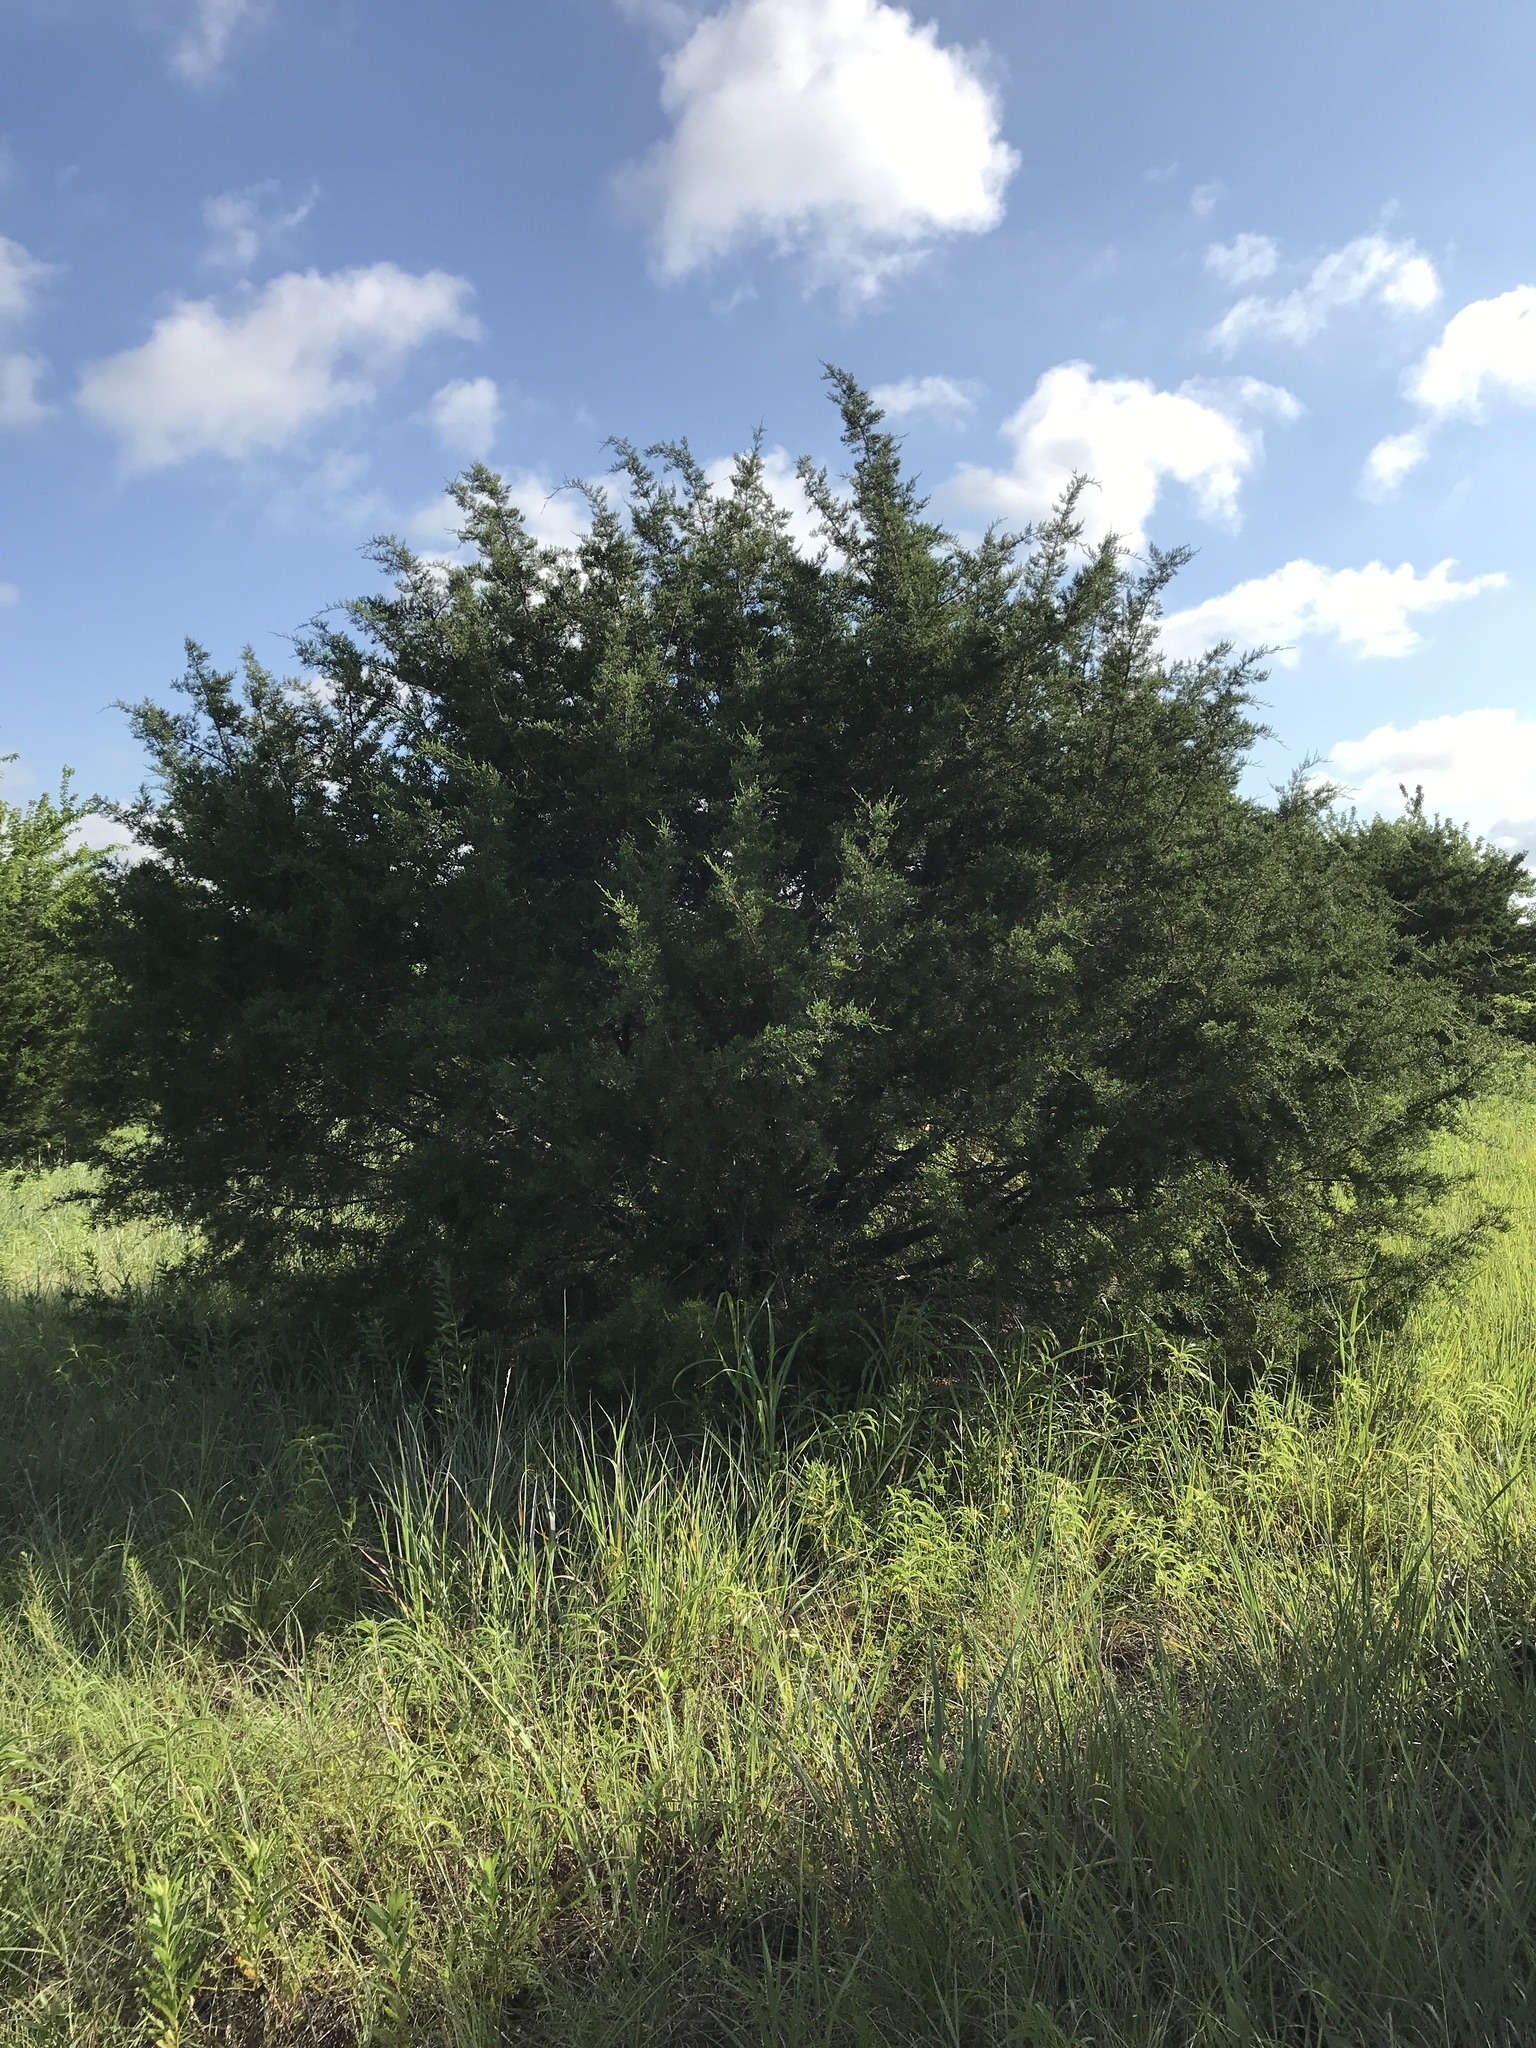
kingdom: Plantae
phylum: Tracheophyta
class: Pinopsida
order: Pinales
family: Cupressaceae
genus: Juniperus
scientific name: Juniperus ashei
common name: Mexican juniper
